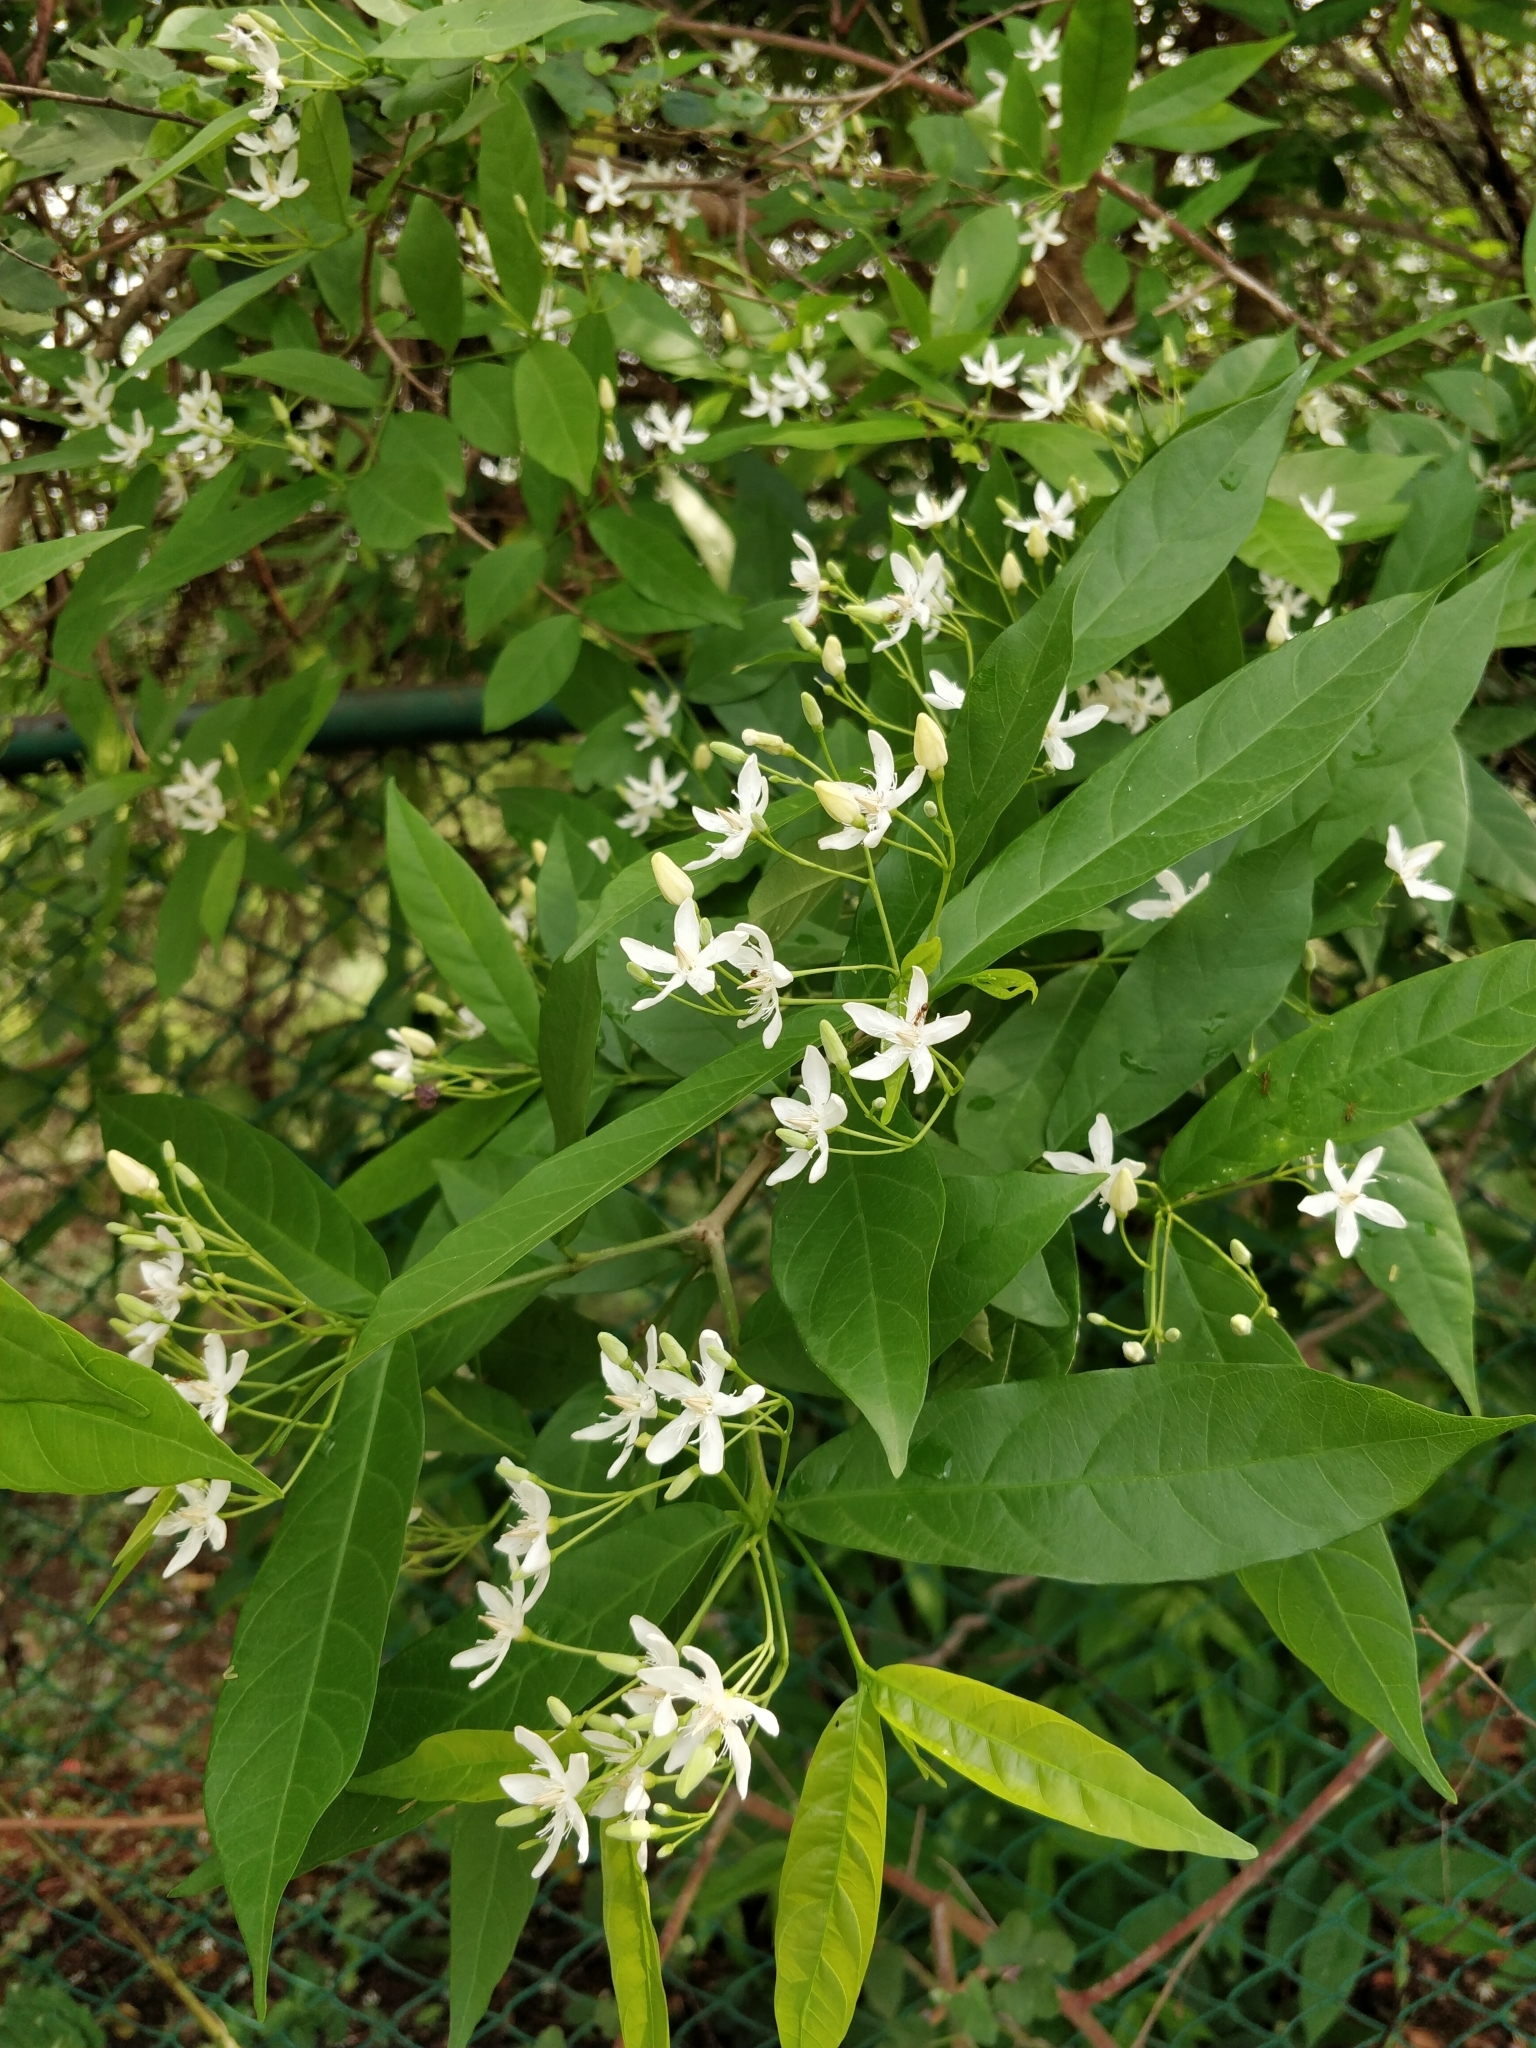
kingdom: Plantae
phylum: Tracheophyta
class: Magnoliopsida
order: Gentianales
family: Apocynaceae
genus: Wrightia
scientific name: Wrightia tinctoria
